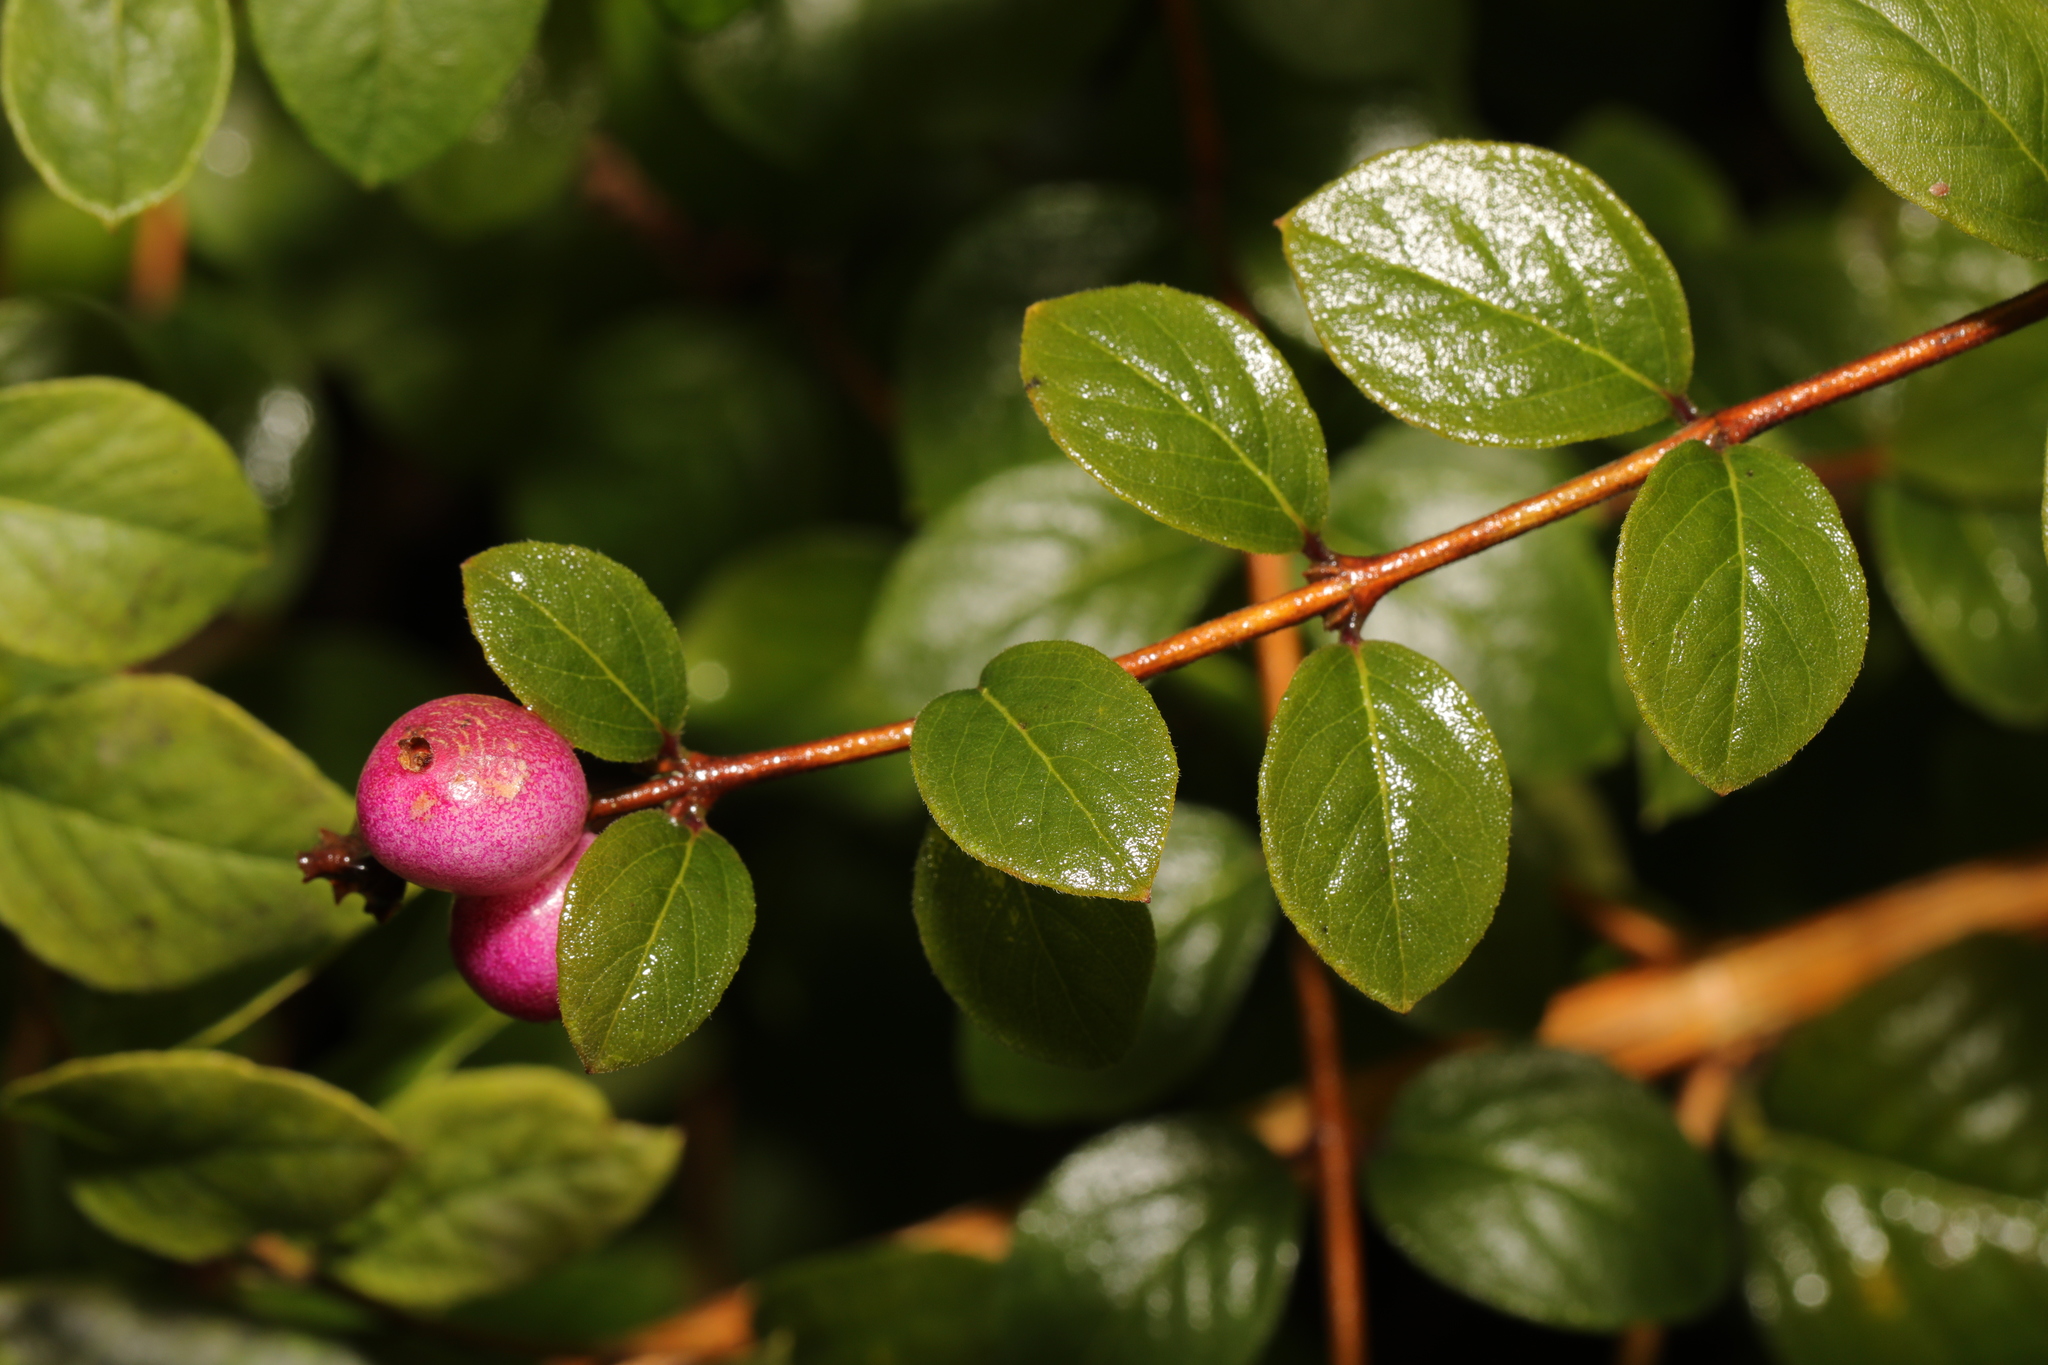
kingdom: Plantae
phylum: Tracheophyta
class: Magnoliopsida
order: Dipsacales
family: Caprifoliaceae
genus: Symphoricarpos
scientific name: Symphoricarpos chenaultii
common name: Hybrid coralberry
